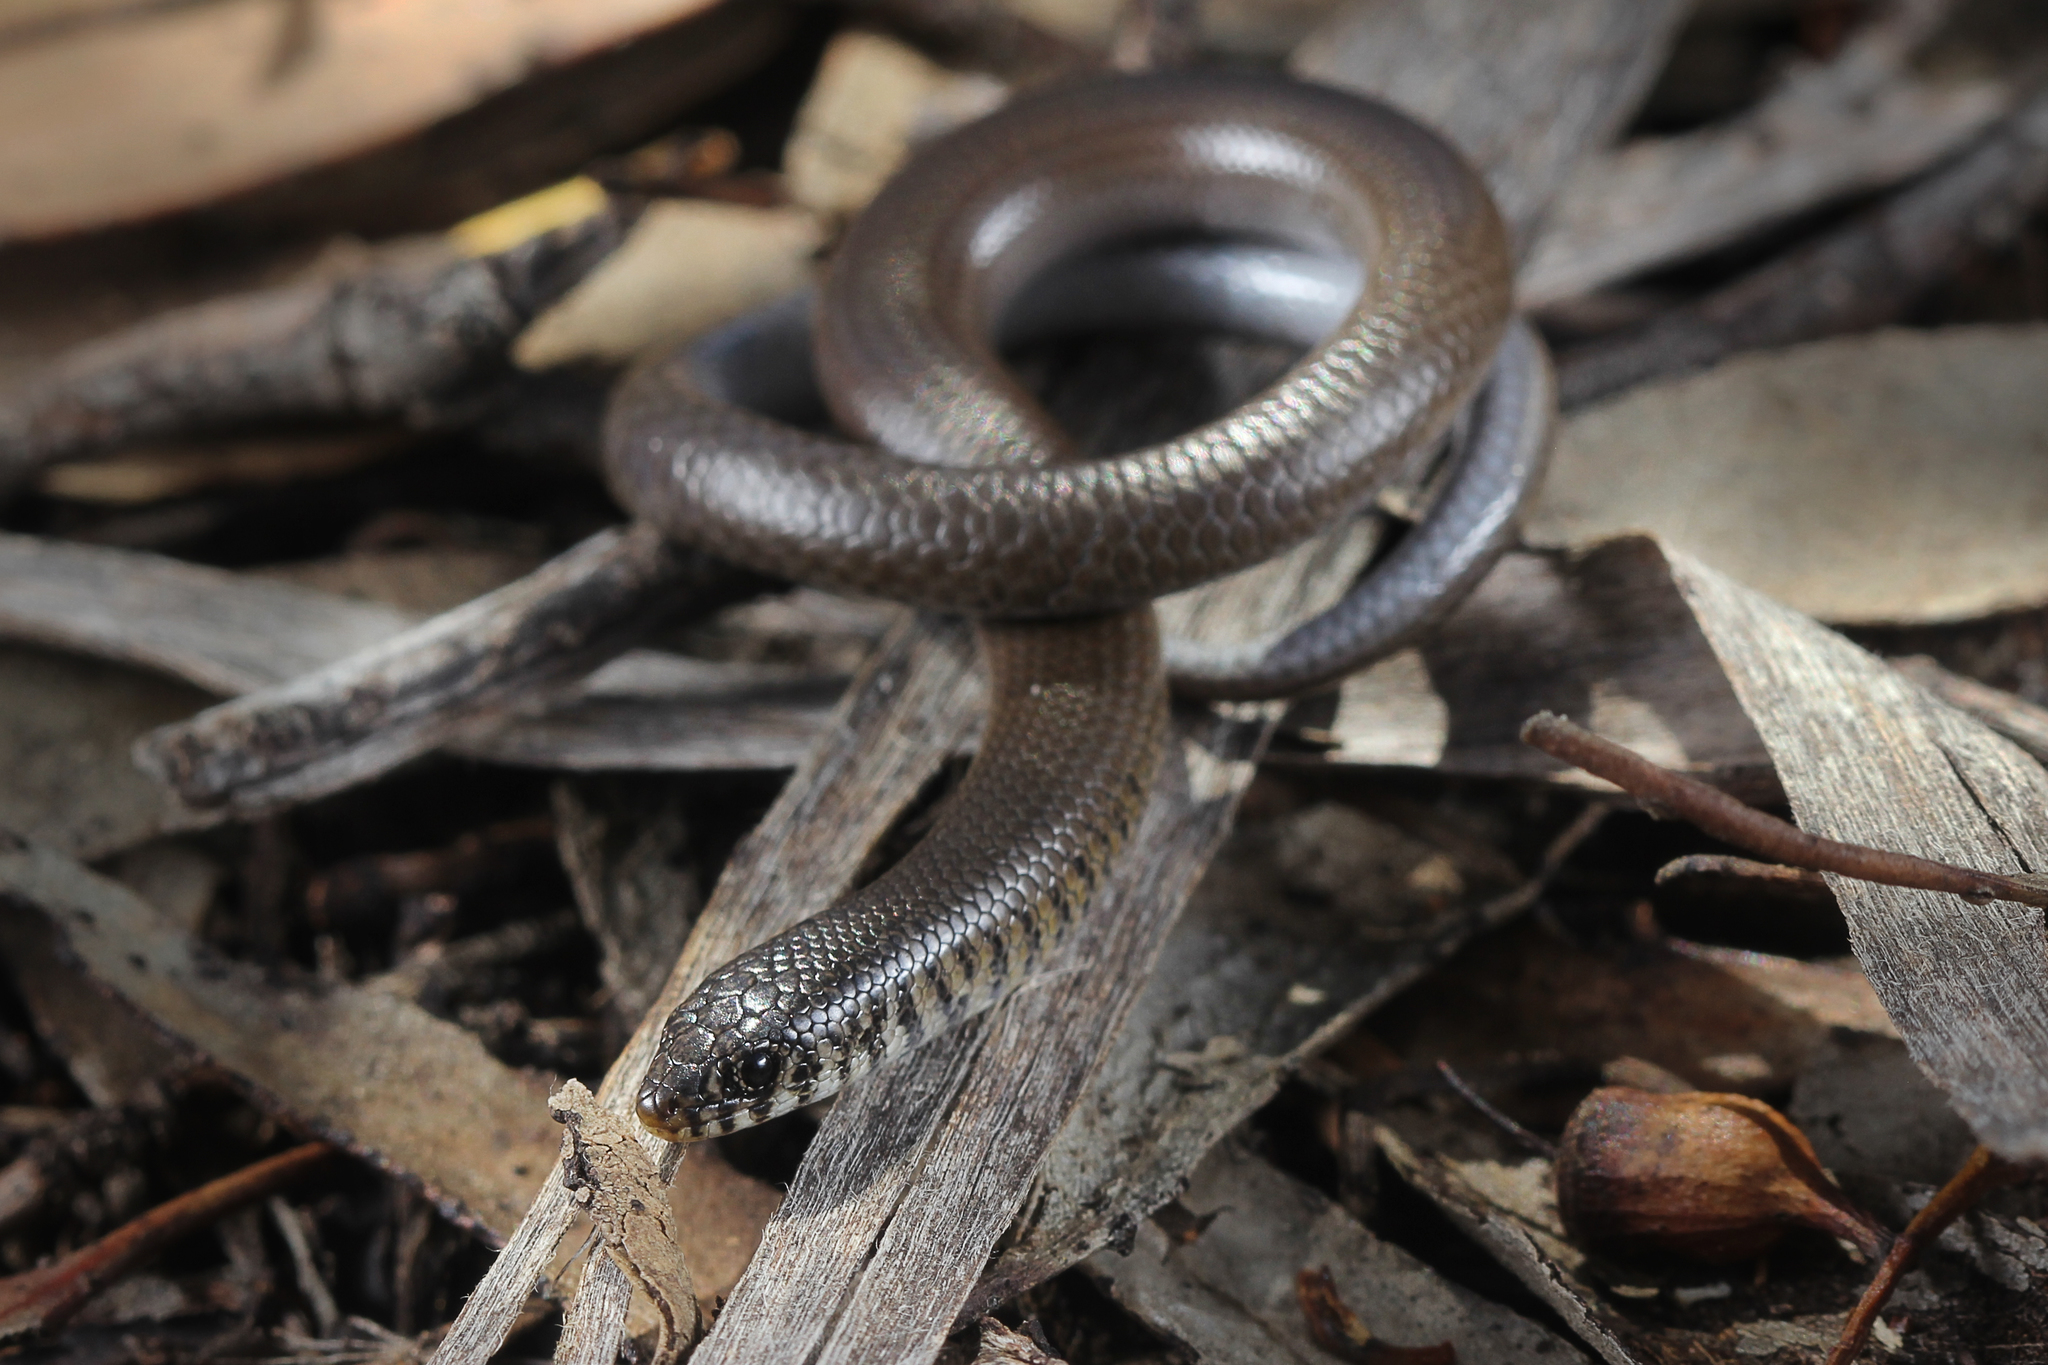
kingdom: Animalia
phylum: Chordata
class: Squamata
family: Pygopodidae
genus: Delma
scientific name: Delma australis
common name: Marble-faced delma
